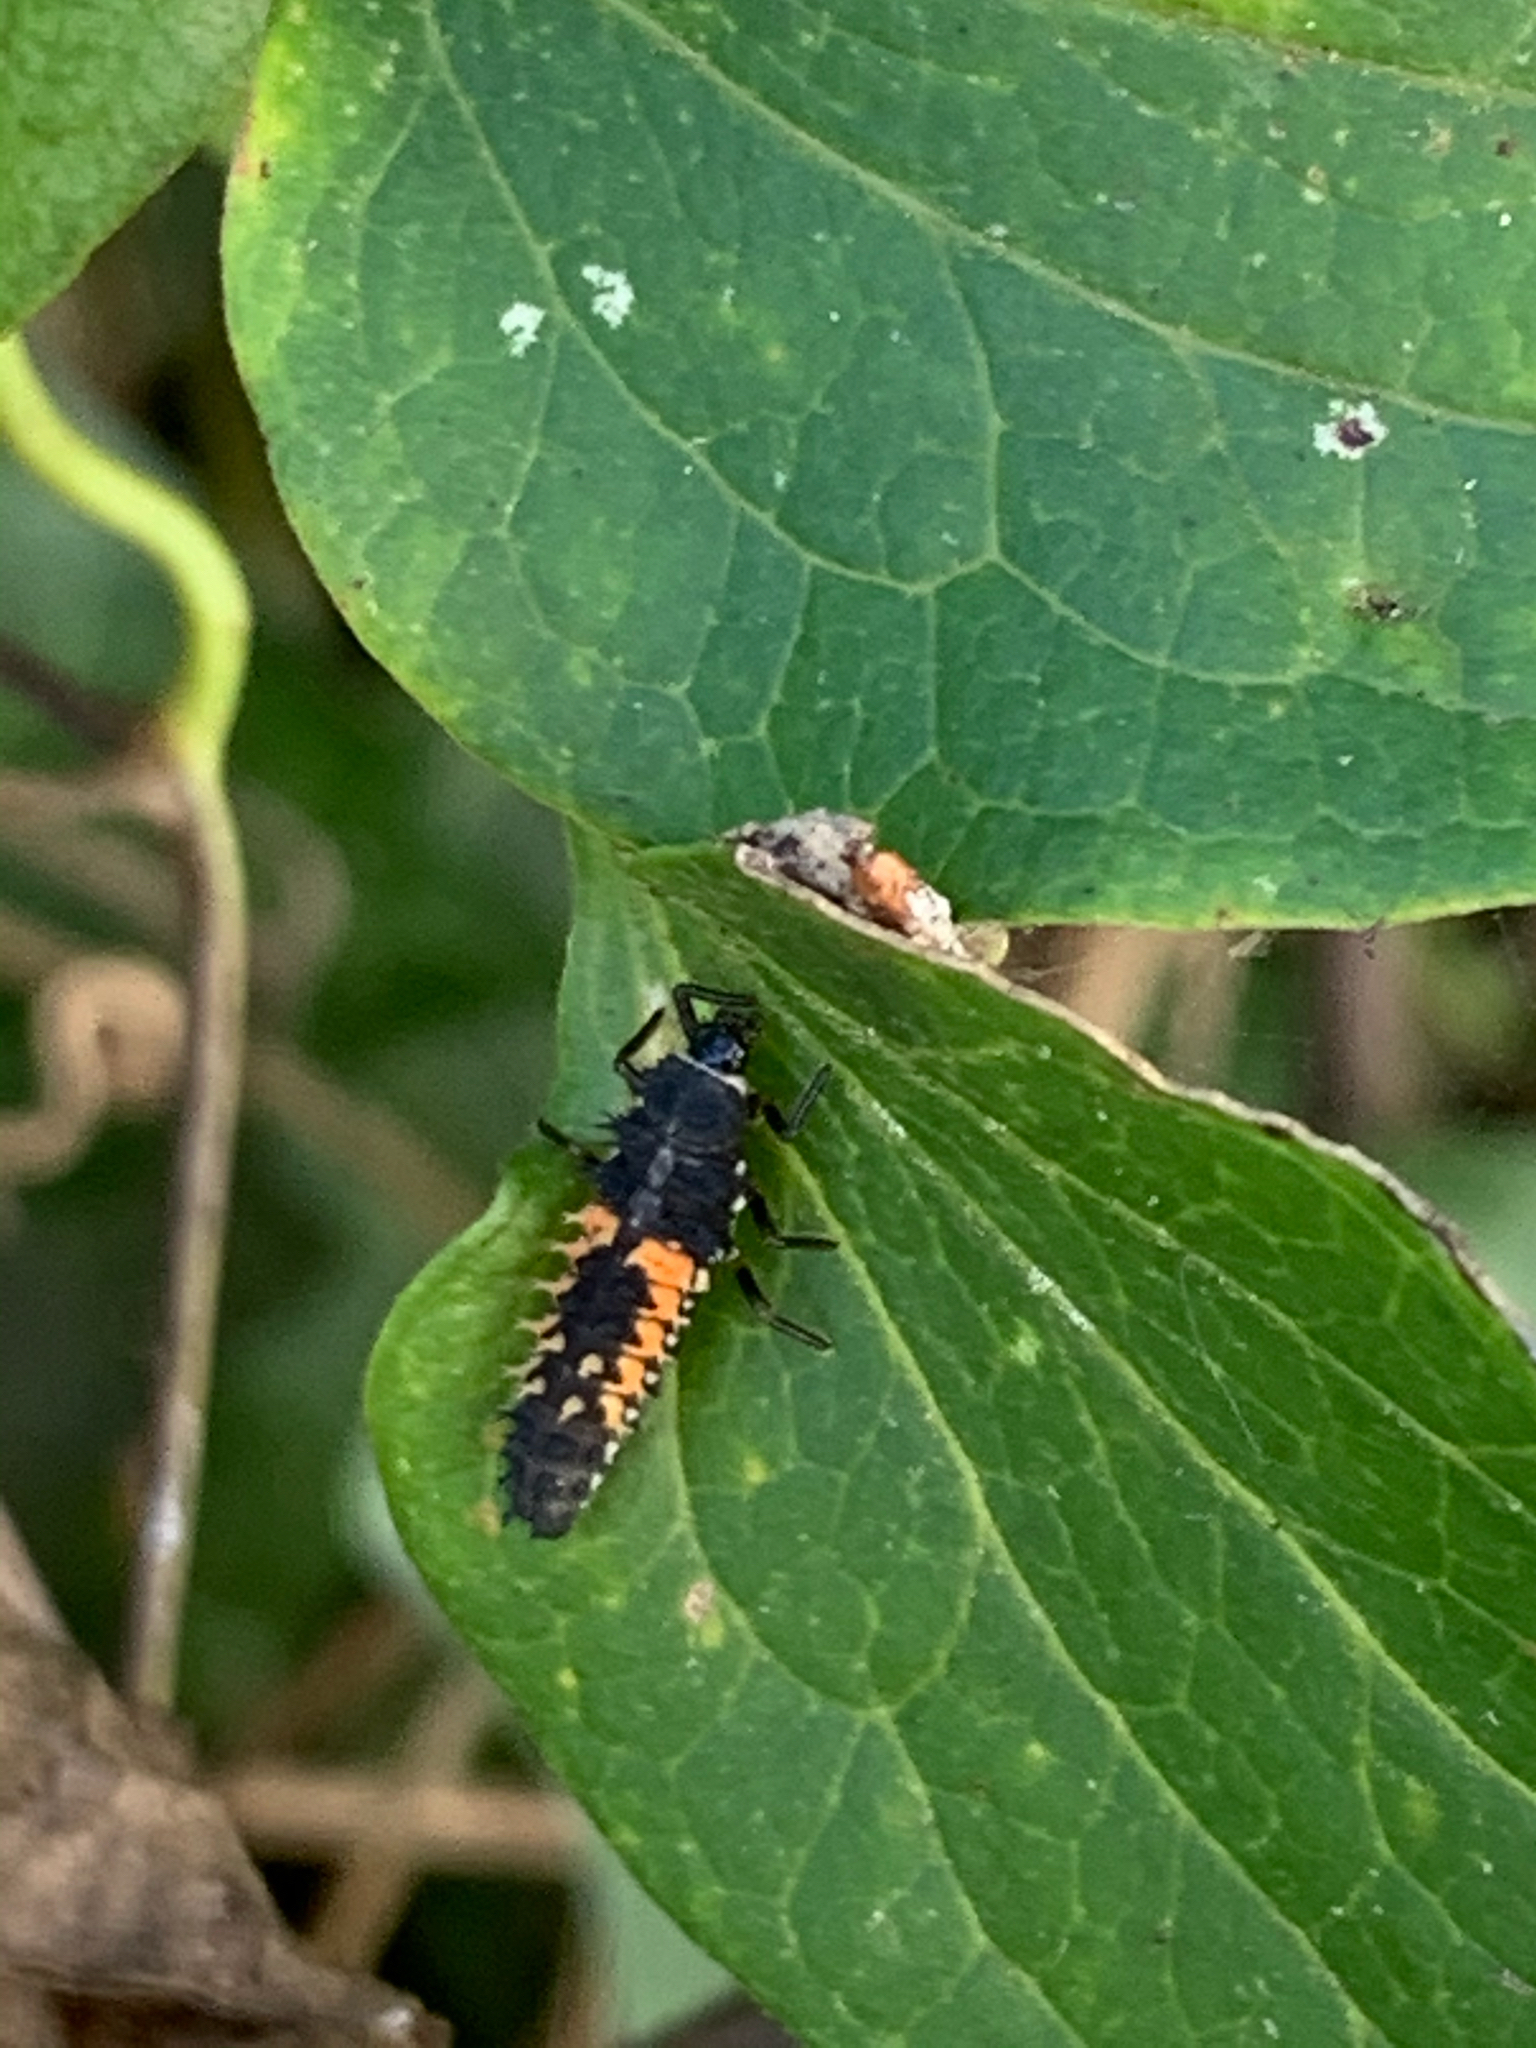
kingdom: Animalia
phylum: Arthropoda
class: Insecta
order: Coleoptera
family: Coccinellidae
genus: Harmonia
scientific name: Harmonia axyridis
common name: Harlequin ladybird
